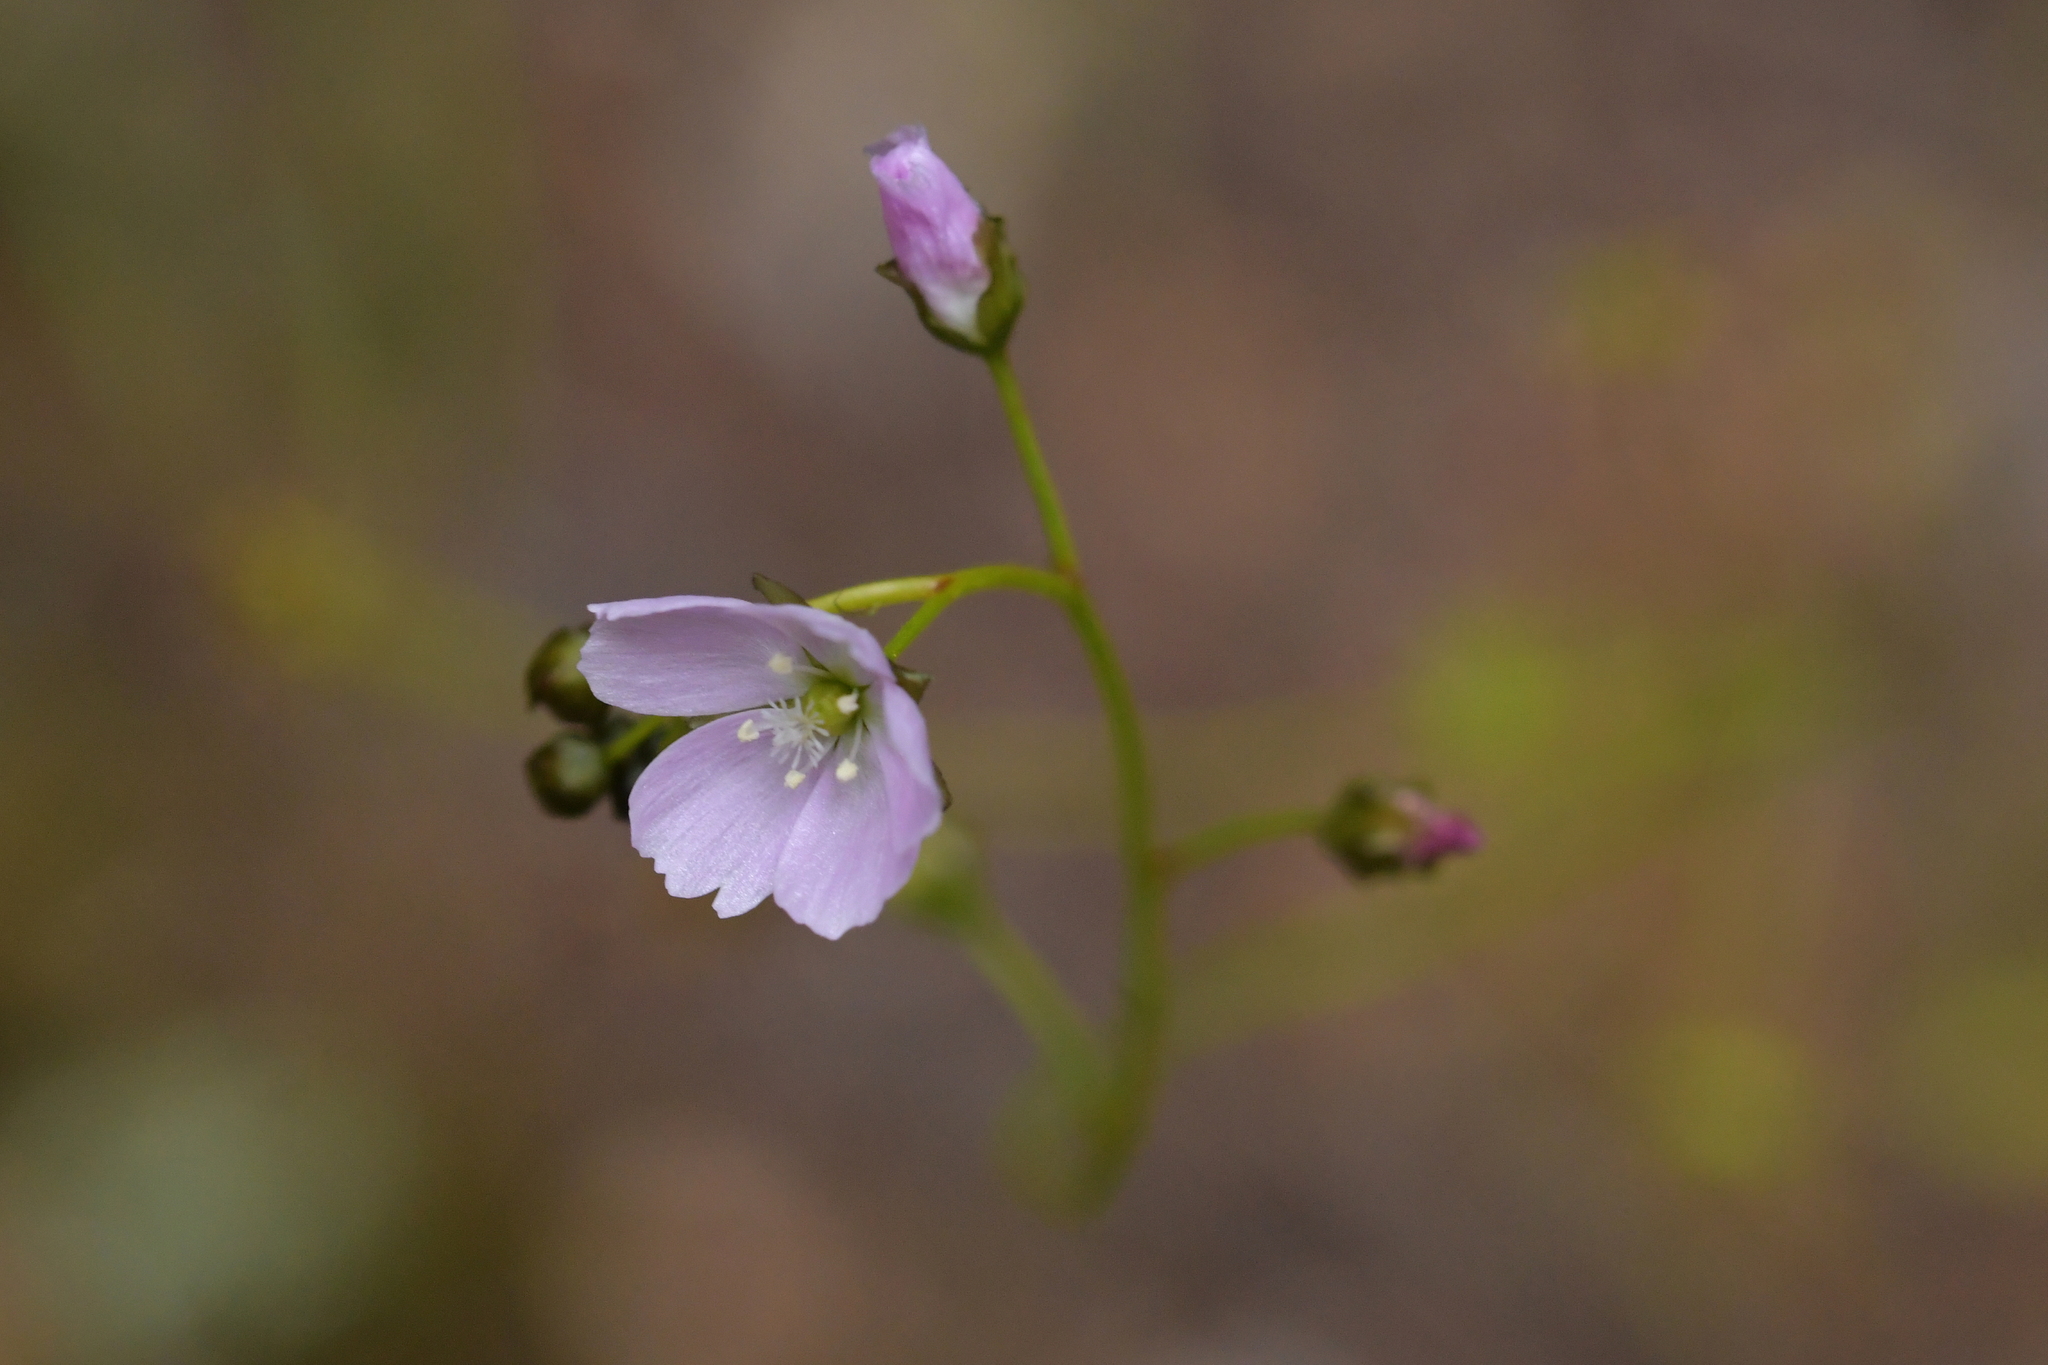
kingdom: Plantae
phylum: Tracheophyta
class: Magnoliopsida
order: Caryophyllales
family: Droseraceae
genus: Drosera
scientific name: Drosera peltata
